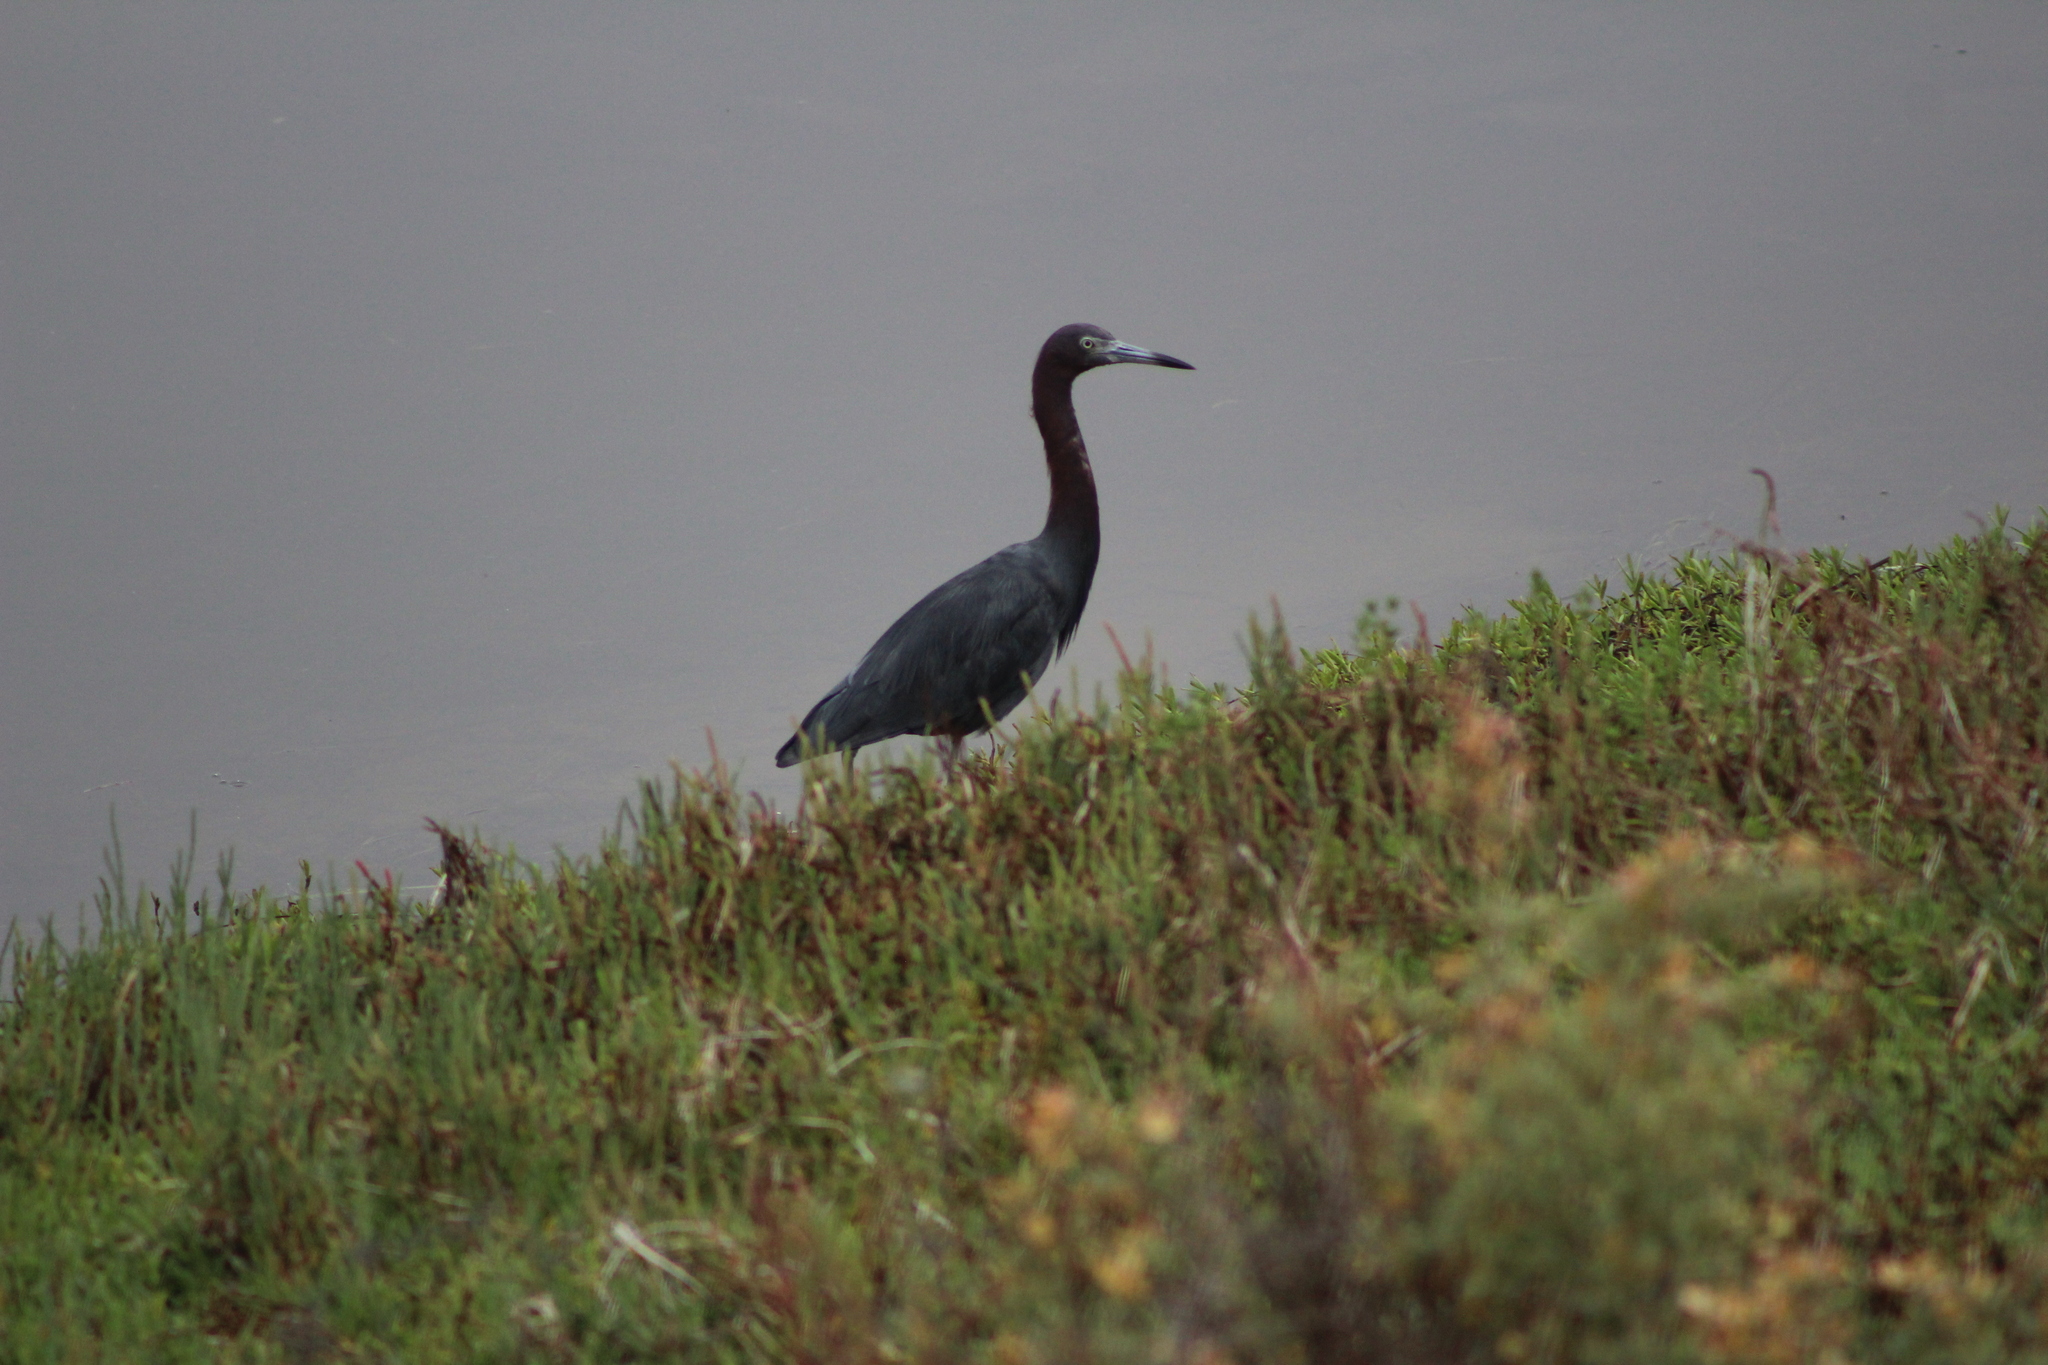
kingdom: Animalia
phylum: Chordata
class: Aves
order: Pelecaniformes
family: Ardeidae
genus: Egretta
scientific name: Egretta caerulea
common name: Little blue heron
